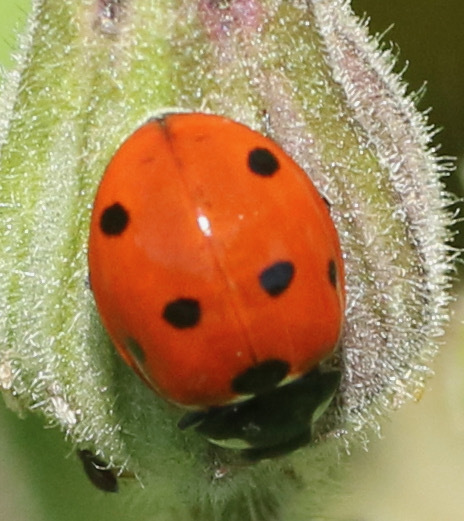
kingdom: Animalia
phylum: Arthropoda
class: Insecta
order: Coleoptera
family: Coccinellidae
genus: Coccinella
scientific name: Coccinella septempunctata
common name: Sevenspotted lady beetle
